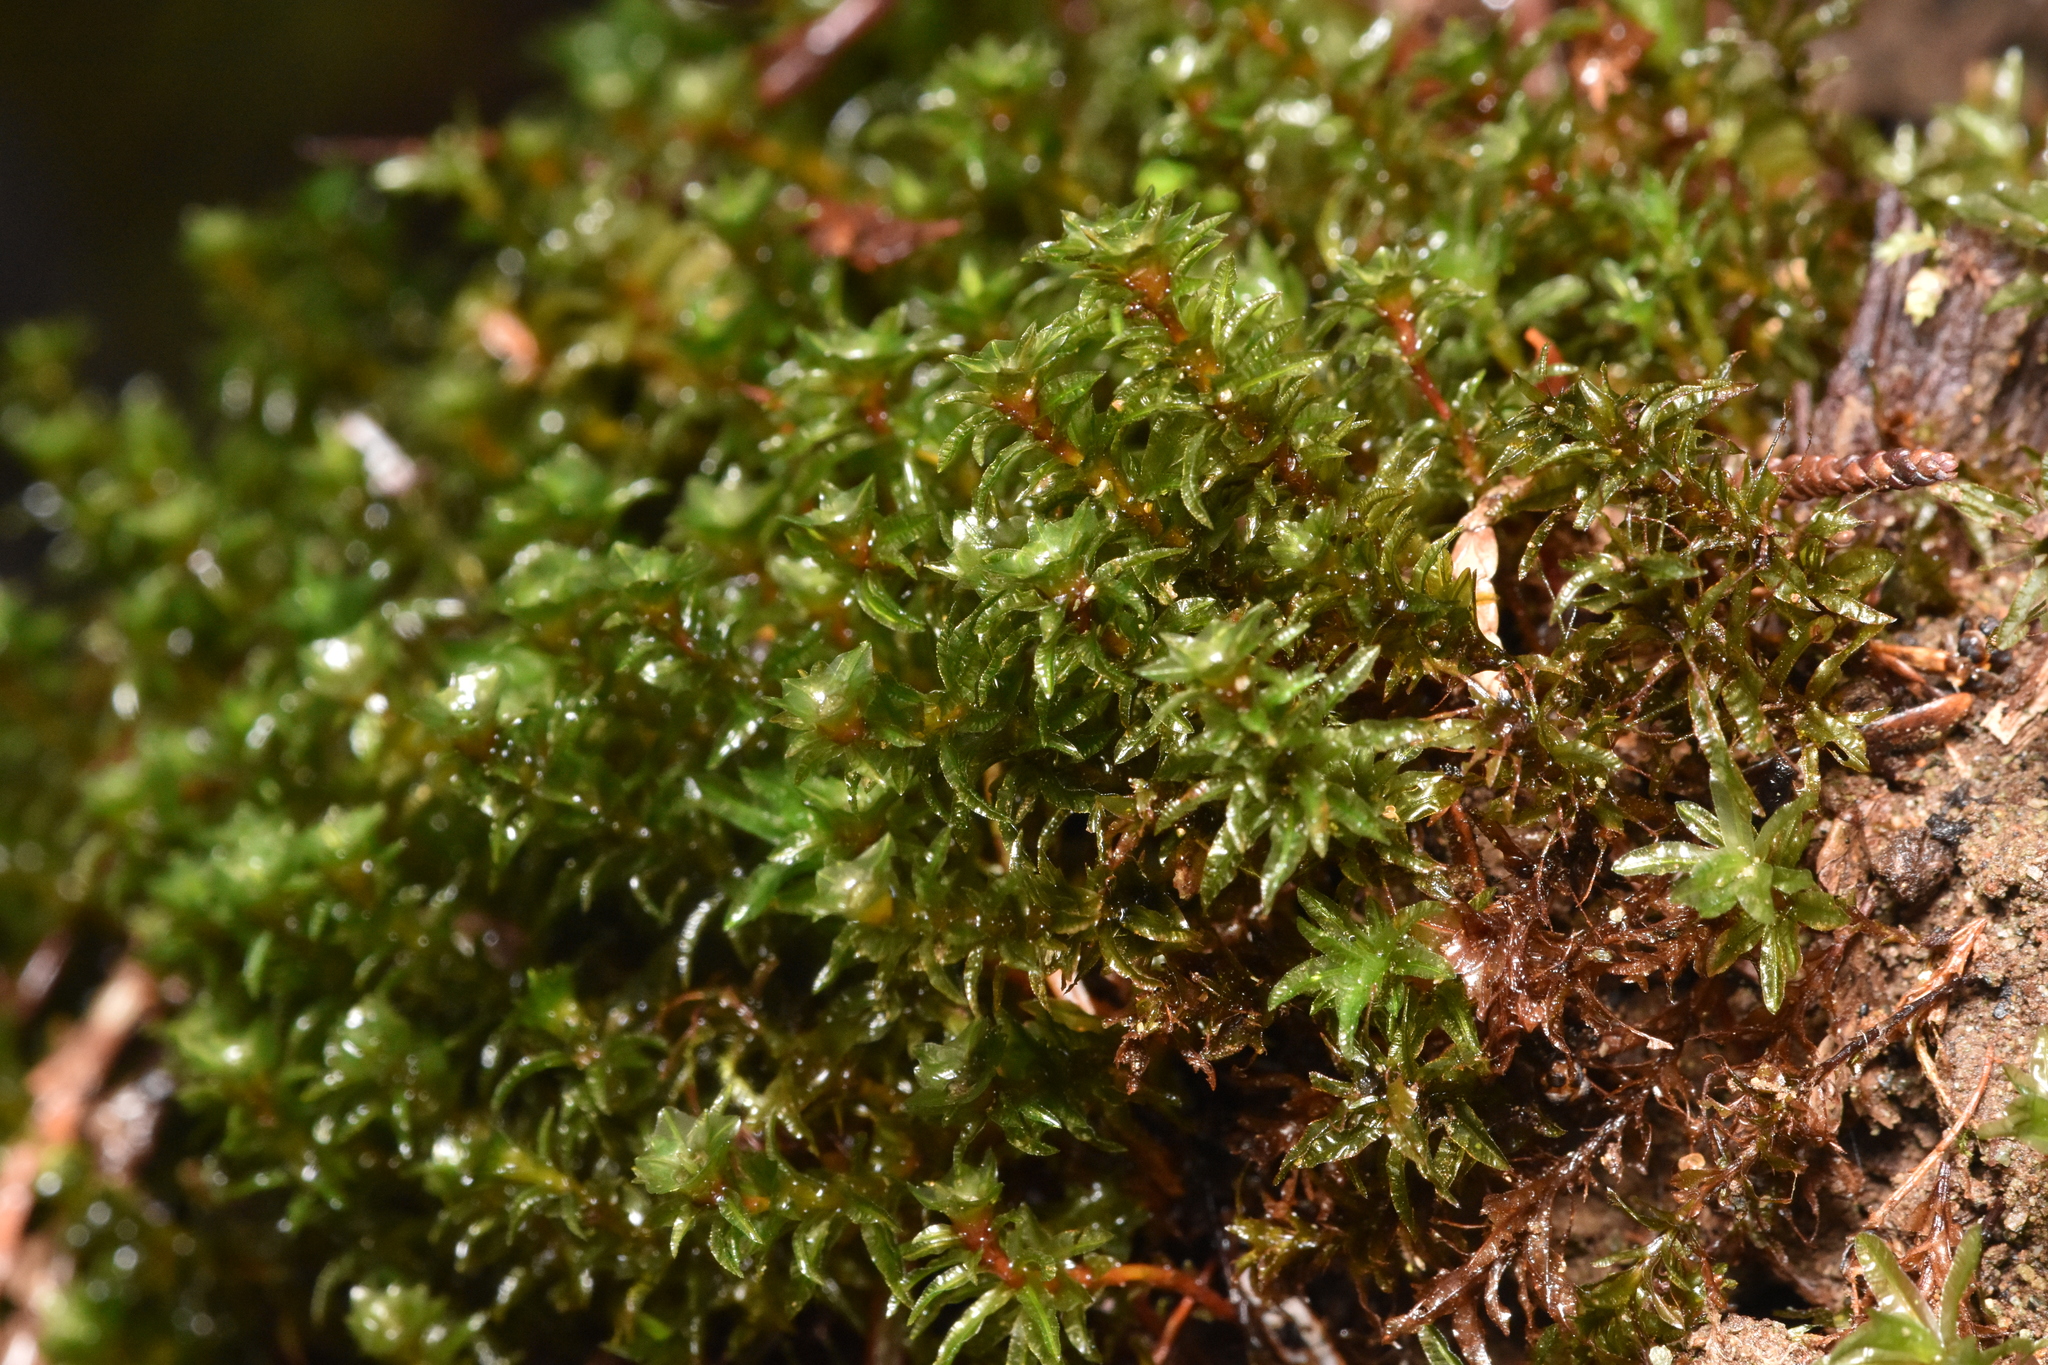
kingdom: Plantae
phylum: Bryophyta
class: Polytrichopsida
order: Polytrichales
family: Polytrichaceae
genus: Pogonatum
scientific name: Pogonatum contortum
